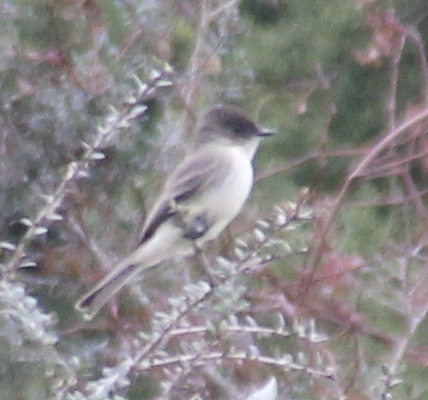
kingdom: Animalia
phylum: Chordata
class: Aves
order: Passeriformes
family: Tyrannidae
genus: Sayornis
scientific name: Sayornis phoebe
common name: Eastern phoebe
